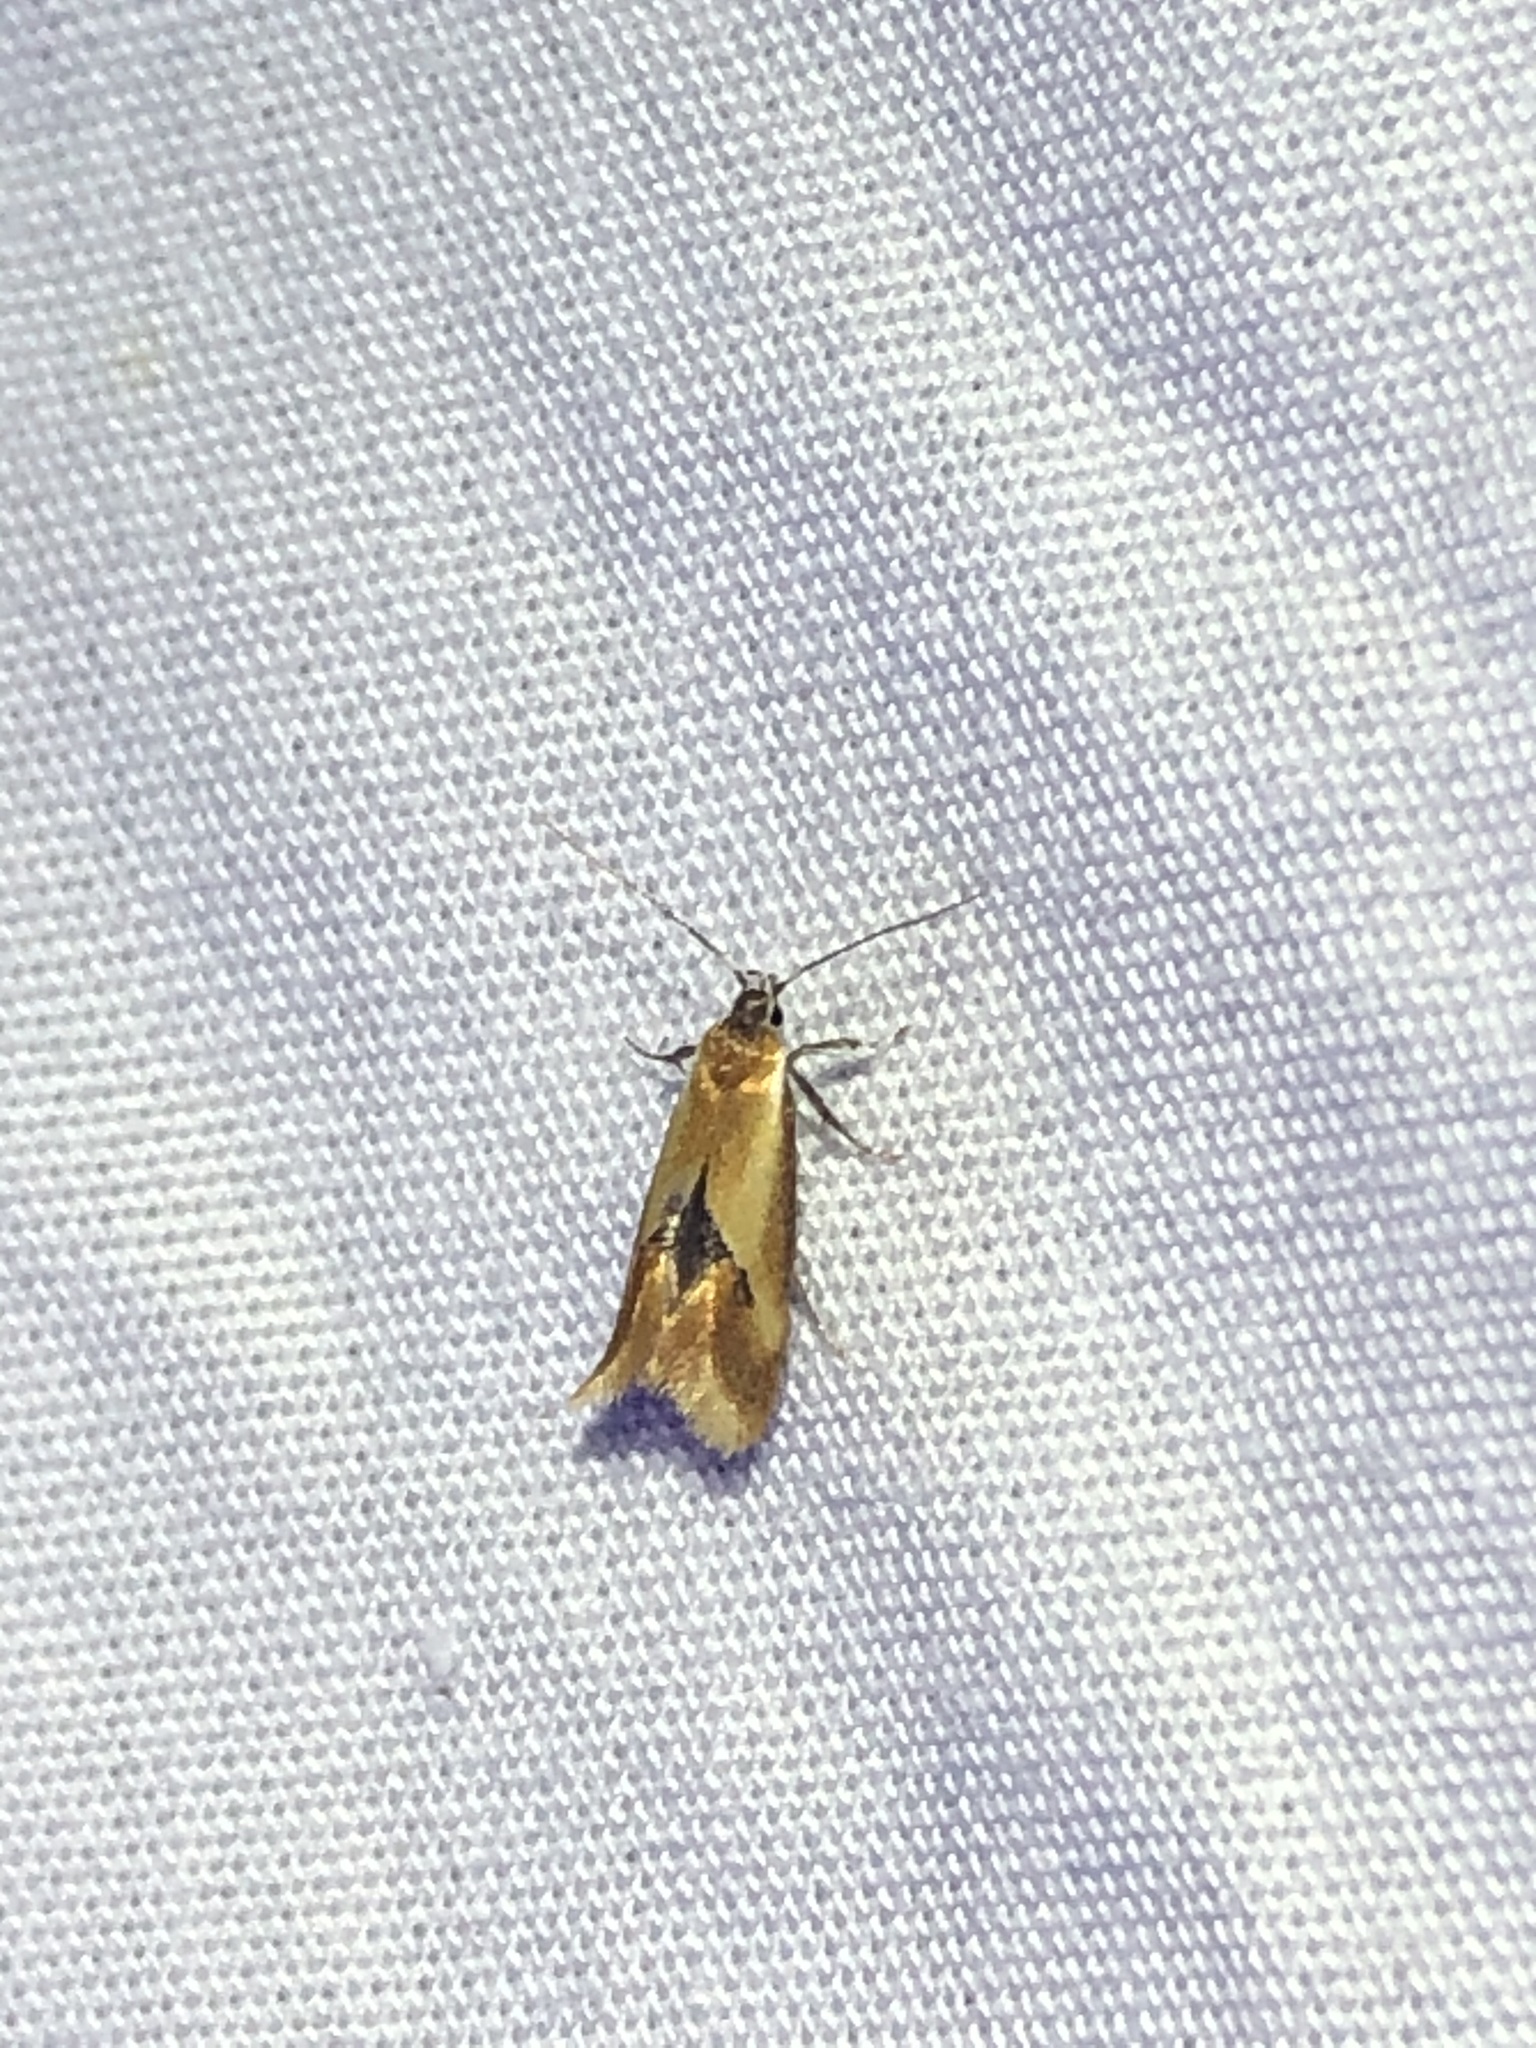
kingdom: Animalia
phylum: Arthropoda
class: Insecta
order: Lepidoptera
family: Oecophoridae
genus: Batia
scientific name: Batia lunaris
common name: Moth
